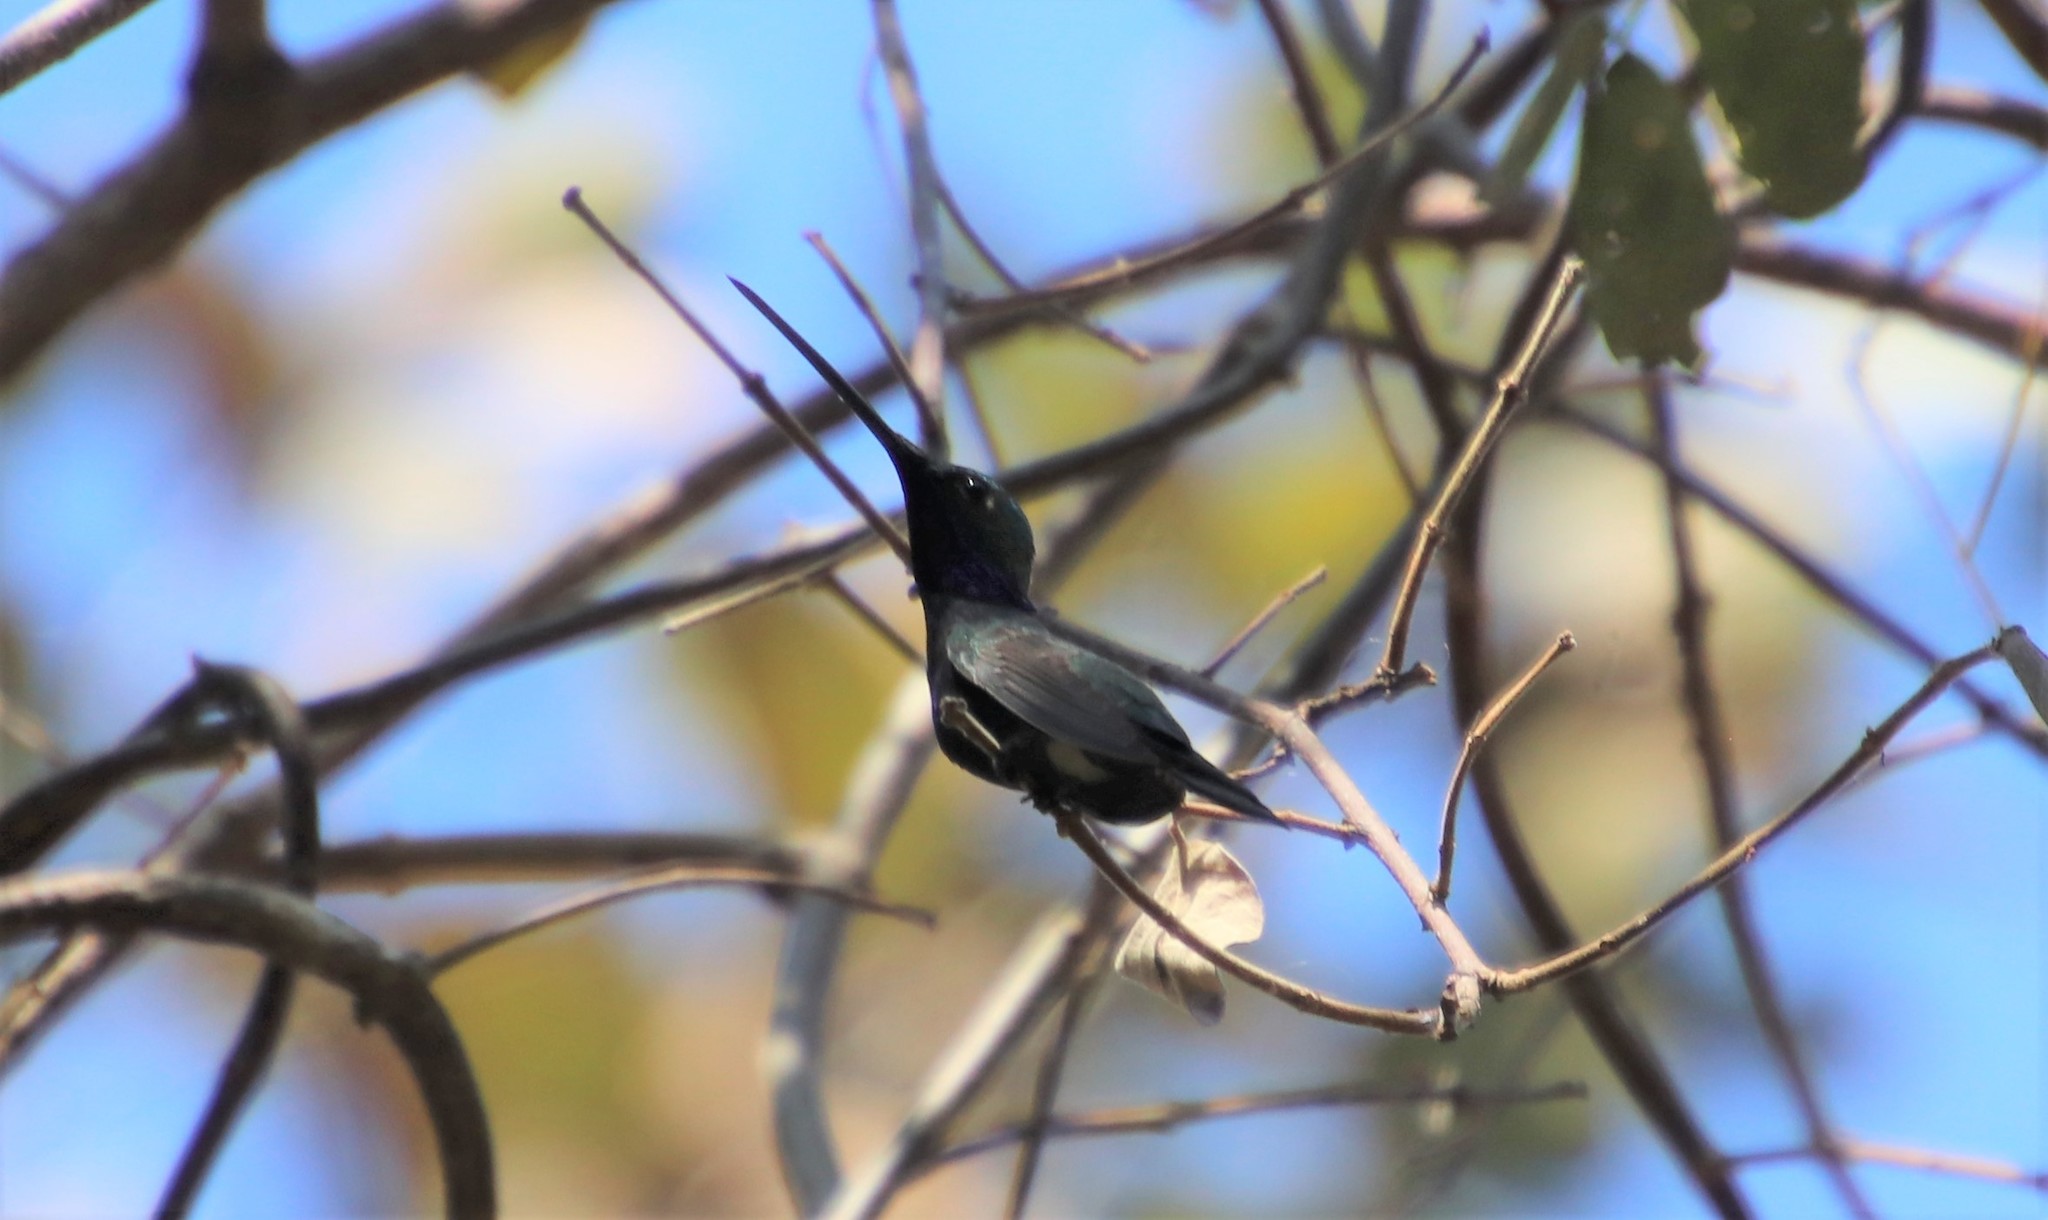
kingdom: Animalia
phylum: Chordata
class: Aves
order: Apodiformes
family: Trochilidae
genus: Heliomaster
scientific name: Heliomaster furcifer
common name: Blue-tufted starthroat
